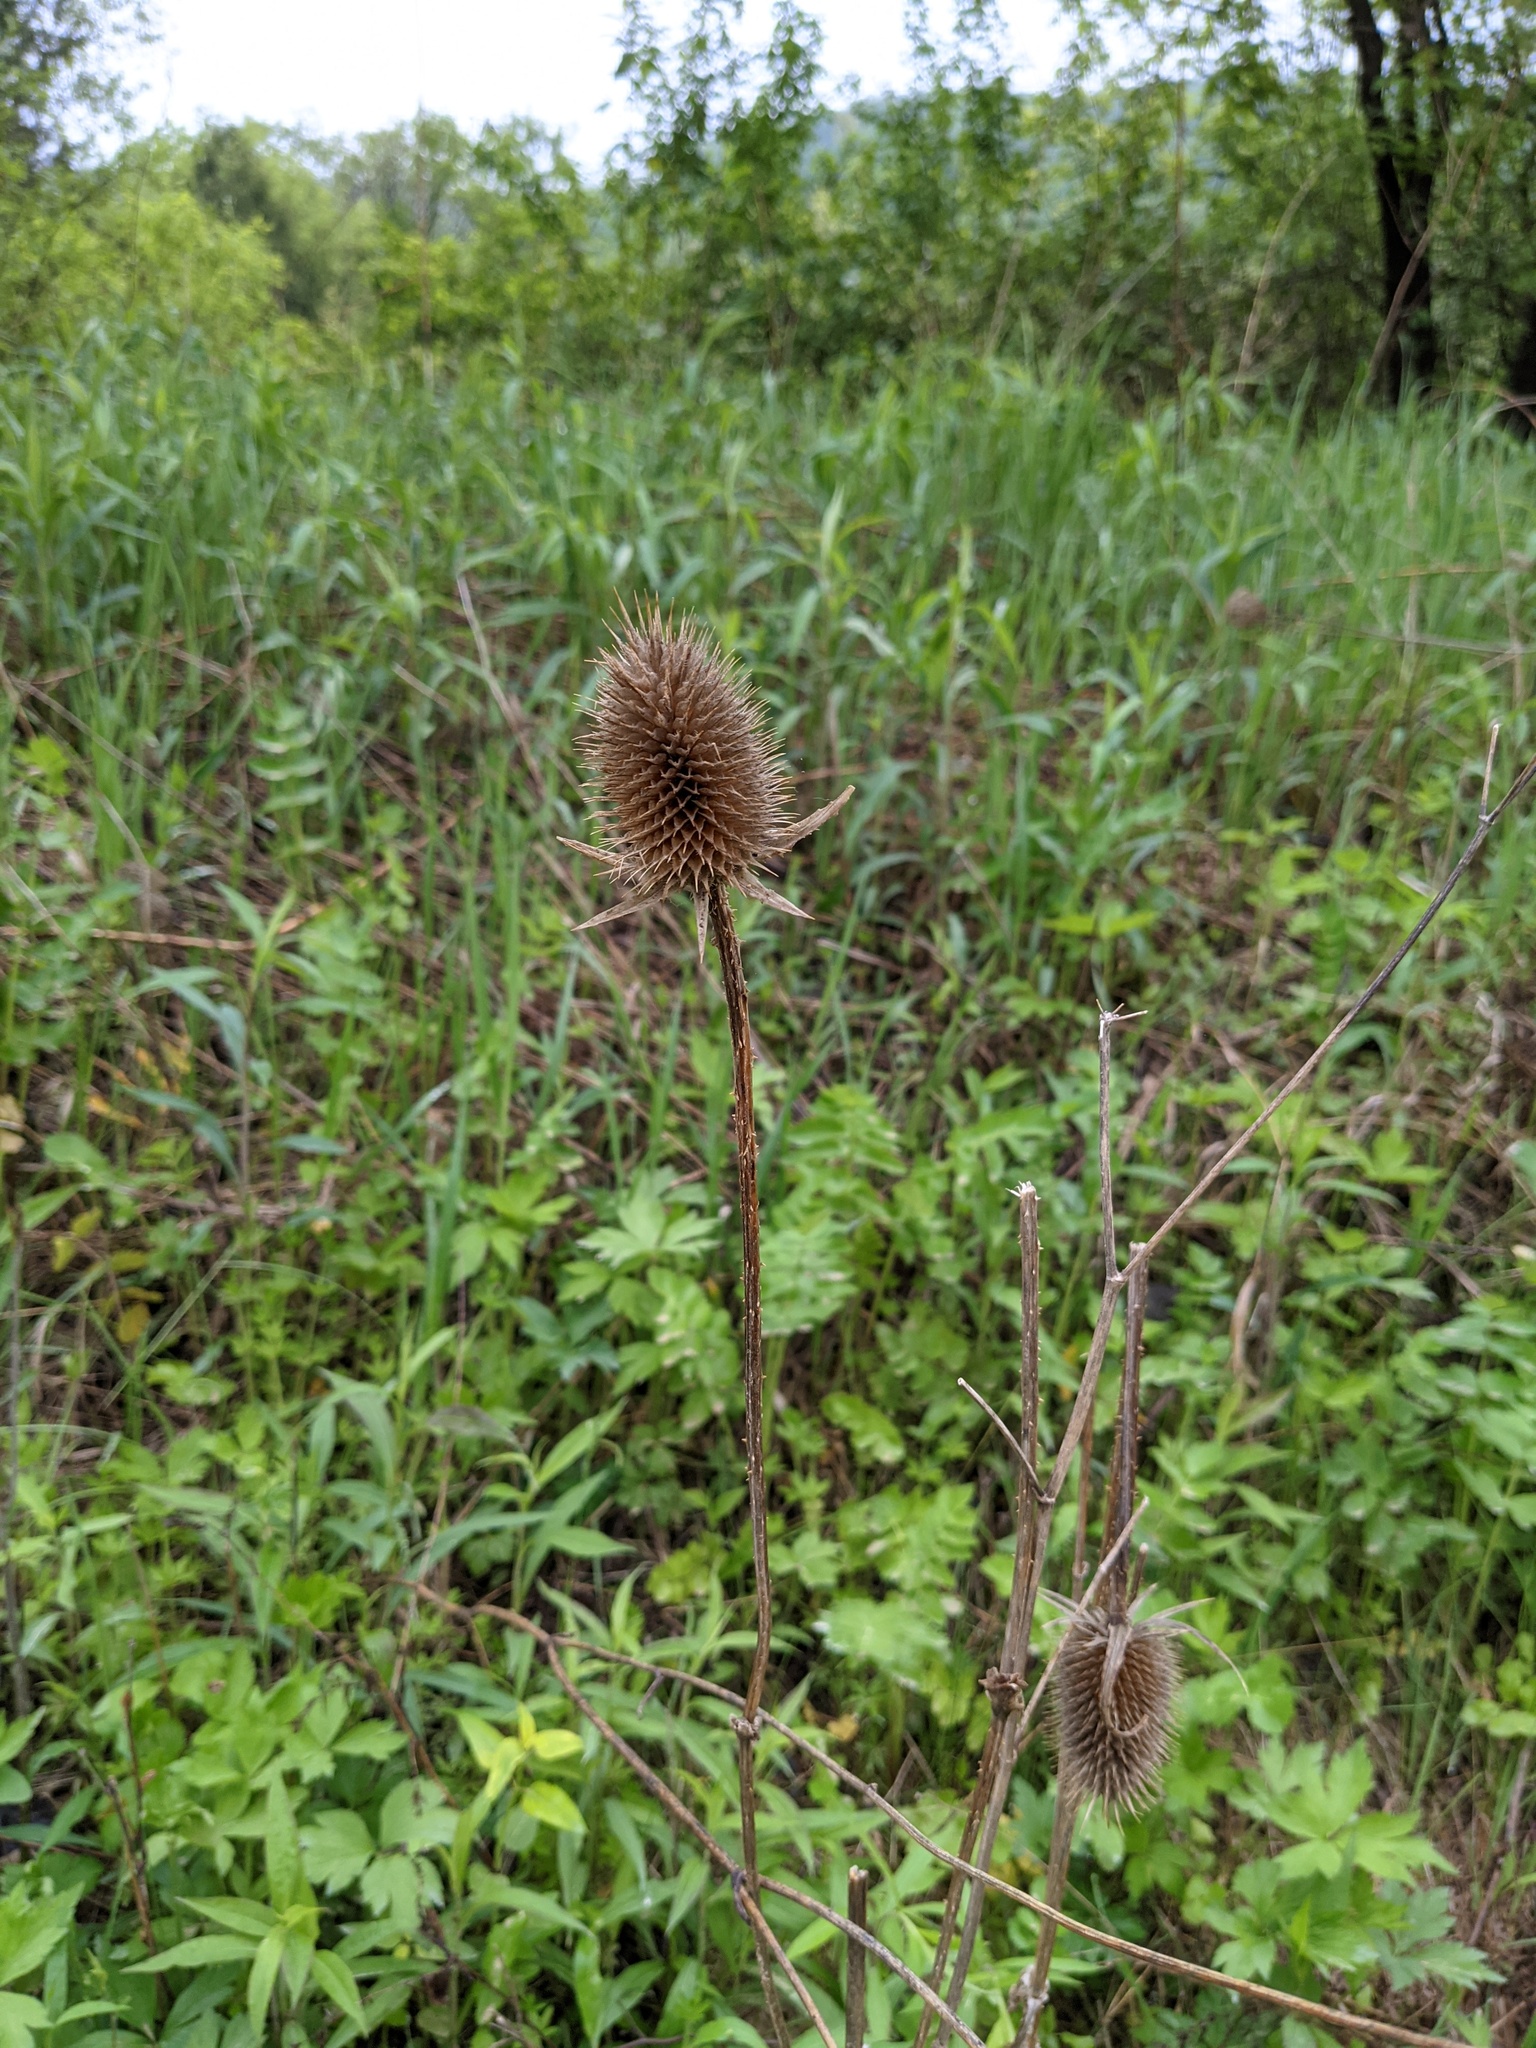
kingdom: Plantae
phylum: Tracheophyta
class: Magnoliopsida
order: Dipsacales
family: Caprifoliaceae
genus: Dipsacus
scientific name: Dipsacus laciniatus
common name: Cut-leaved teasel
